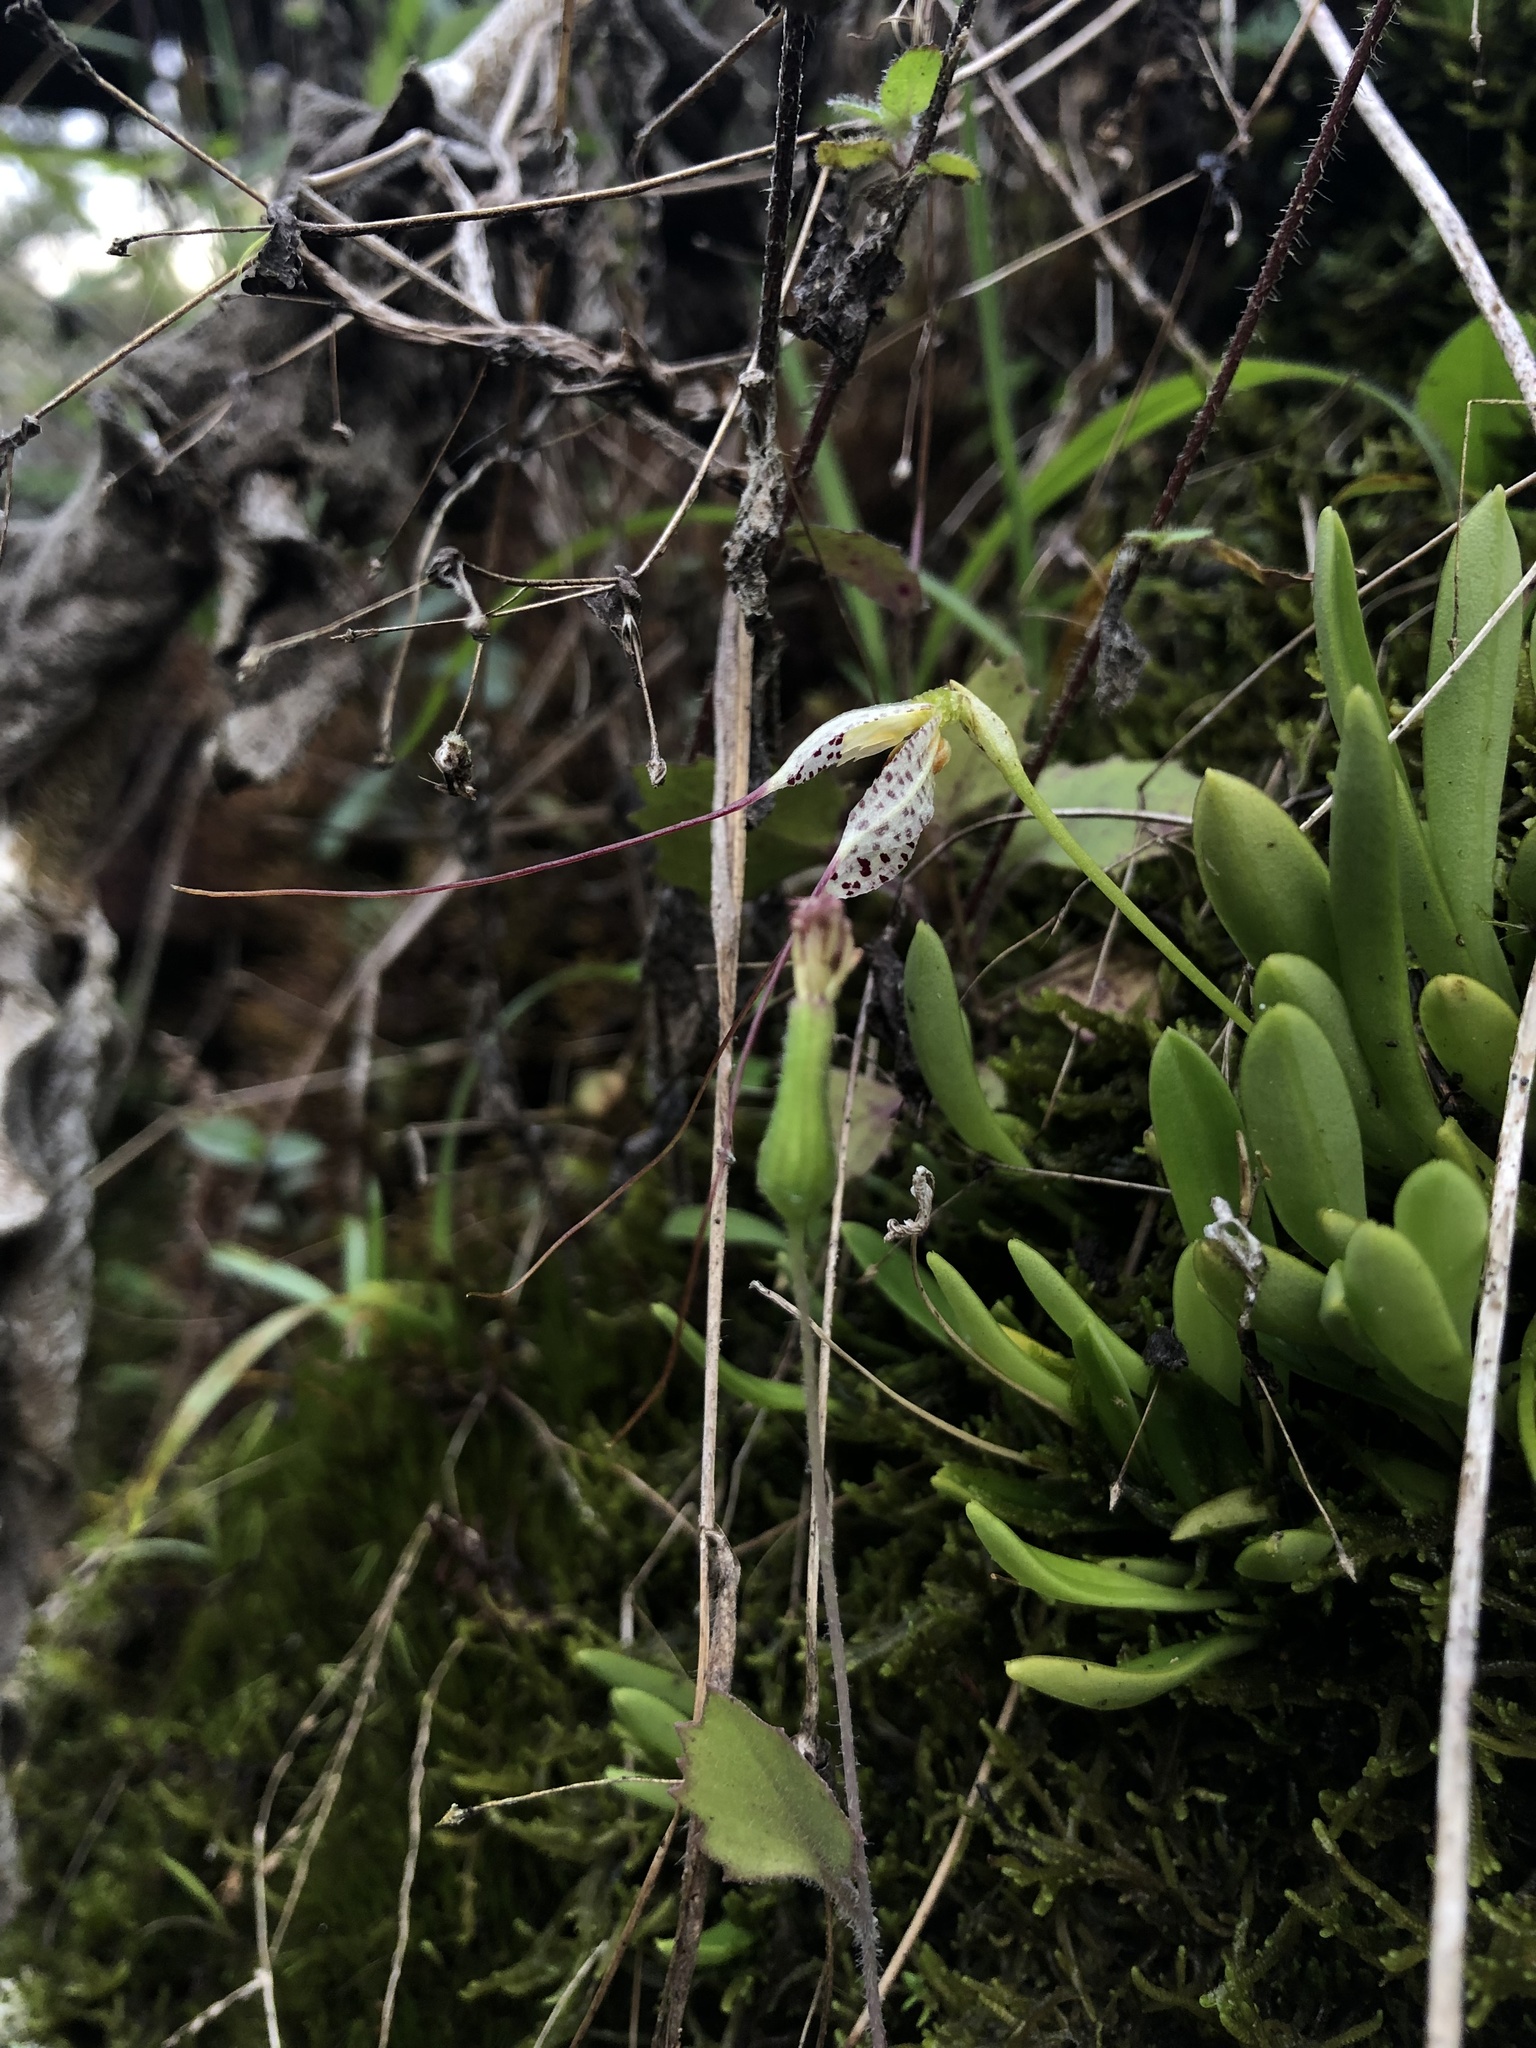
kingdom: Plantae
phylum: Tracheophyta
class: Liliopsida
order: Asparagales
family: Orchidaceae
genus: Masdevallia
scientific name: Masdevallia picturata
